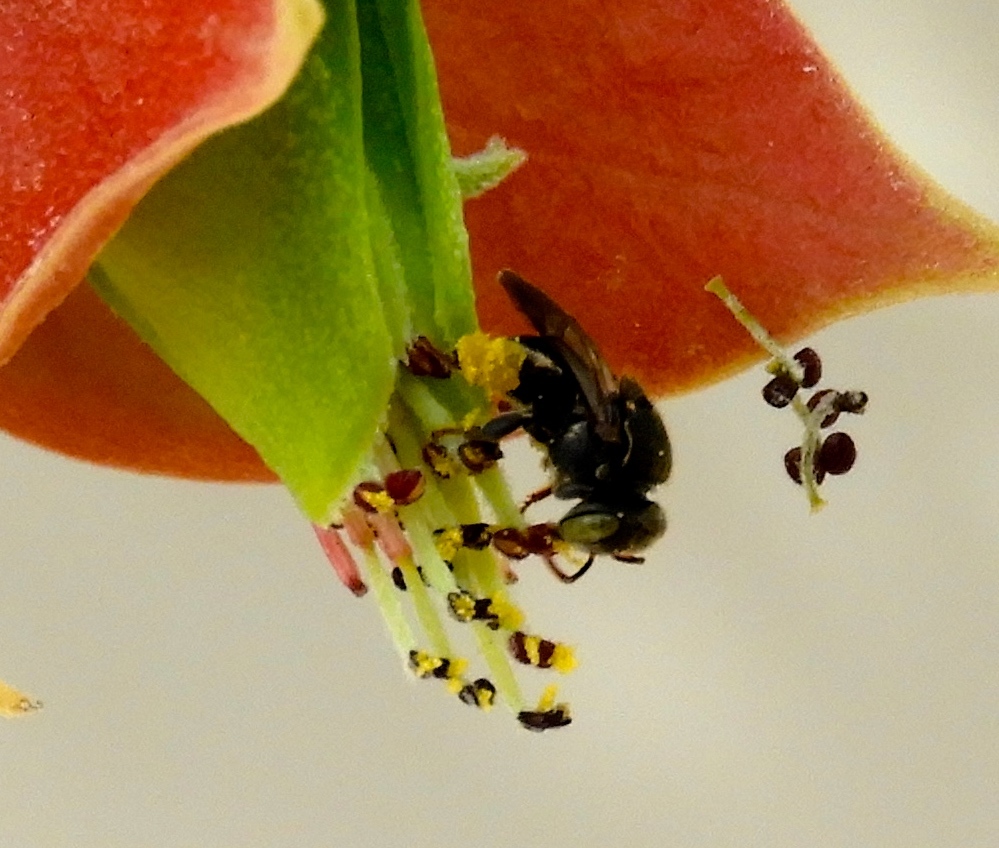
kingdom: Animalia
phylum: Arthropoda
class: Insecta
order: Hymenoptera
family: Apidae
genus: Nannotrigona
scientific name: Nannotrigona perilampoides
